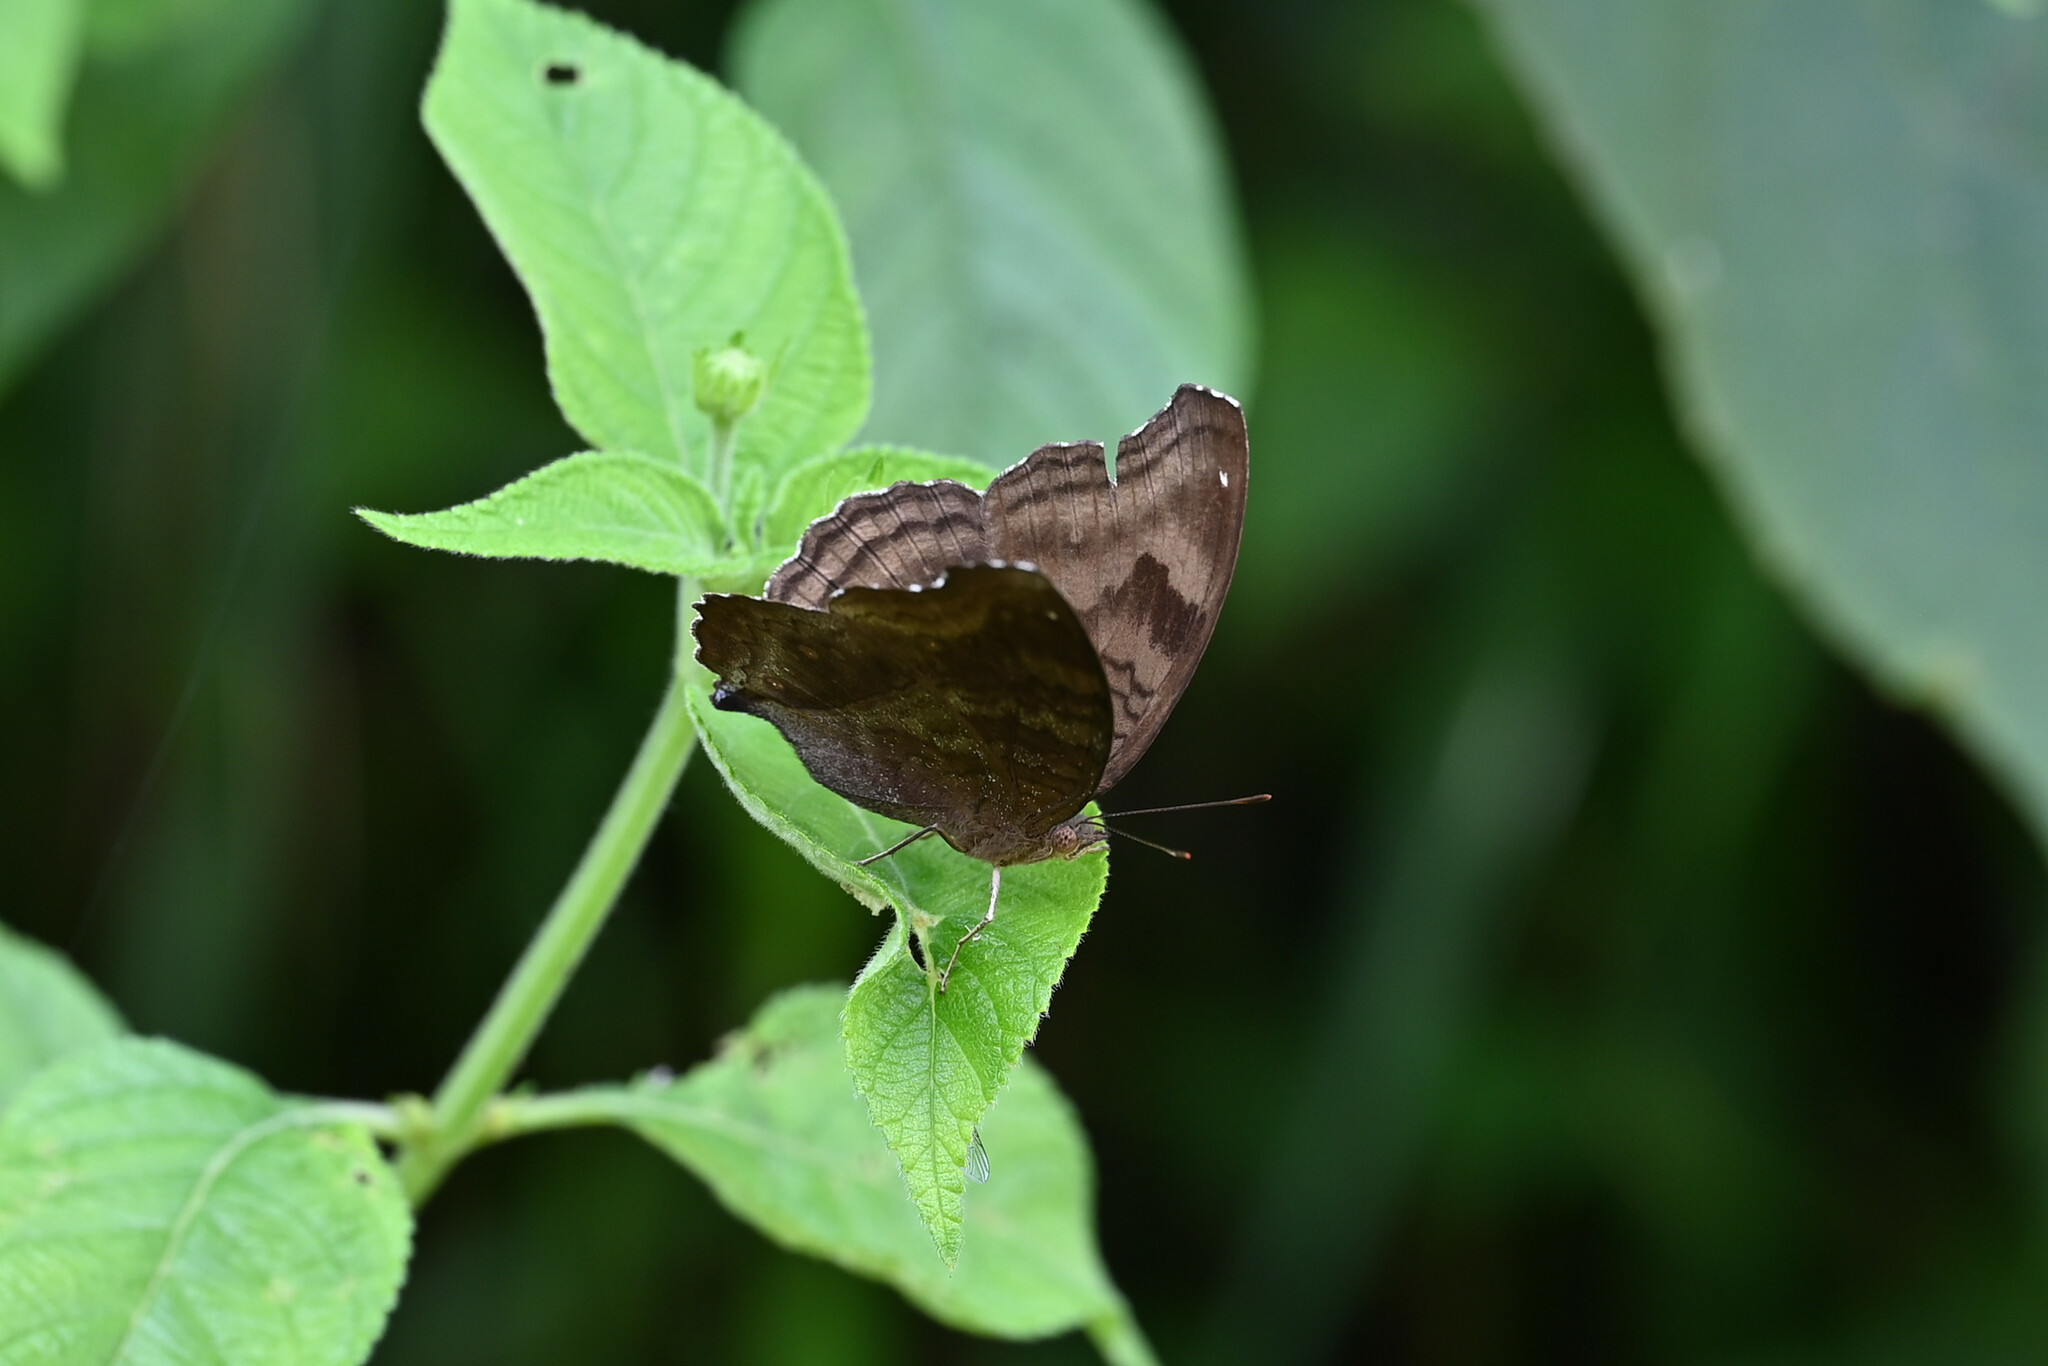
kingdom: Animalia
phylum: Arthropoda
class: Insecta
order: Lepidoptera
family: Nymphalidae
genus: Junonia
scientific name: Junonia iphita
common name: Chocolate pansy
